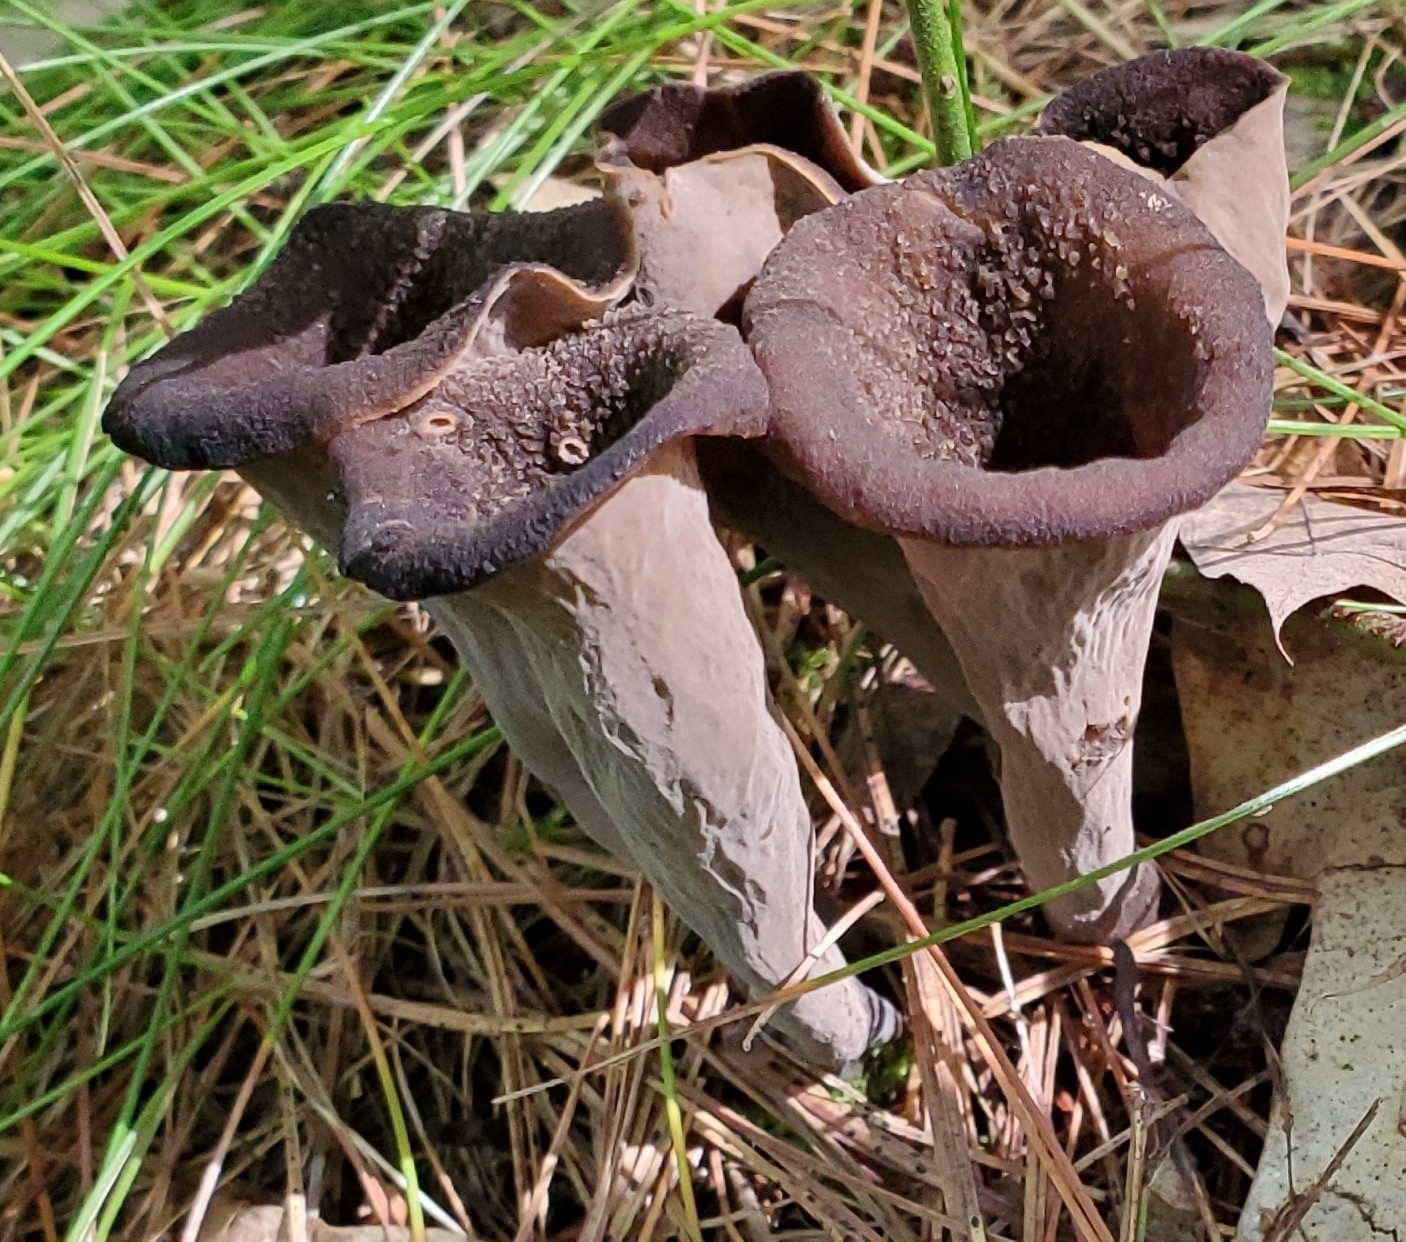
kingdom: Fungi
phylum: Basidiomycota
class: Agaricomycetes
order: Cantharellales
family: Hydnaceae
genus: Craterellus
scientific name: Craterellus cornucopioides
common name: Horn of plenty
